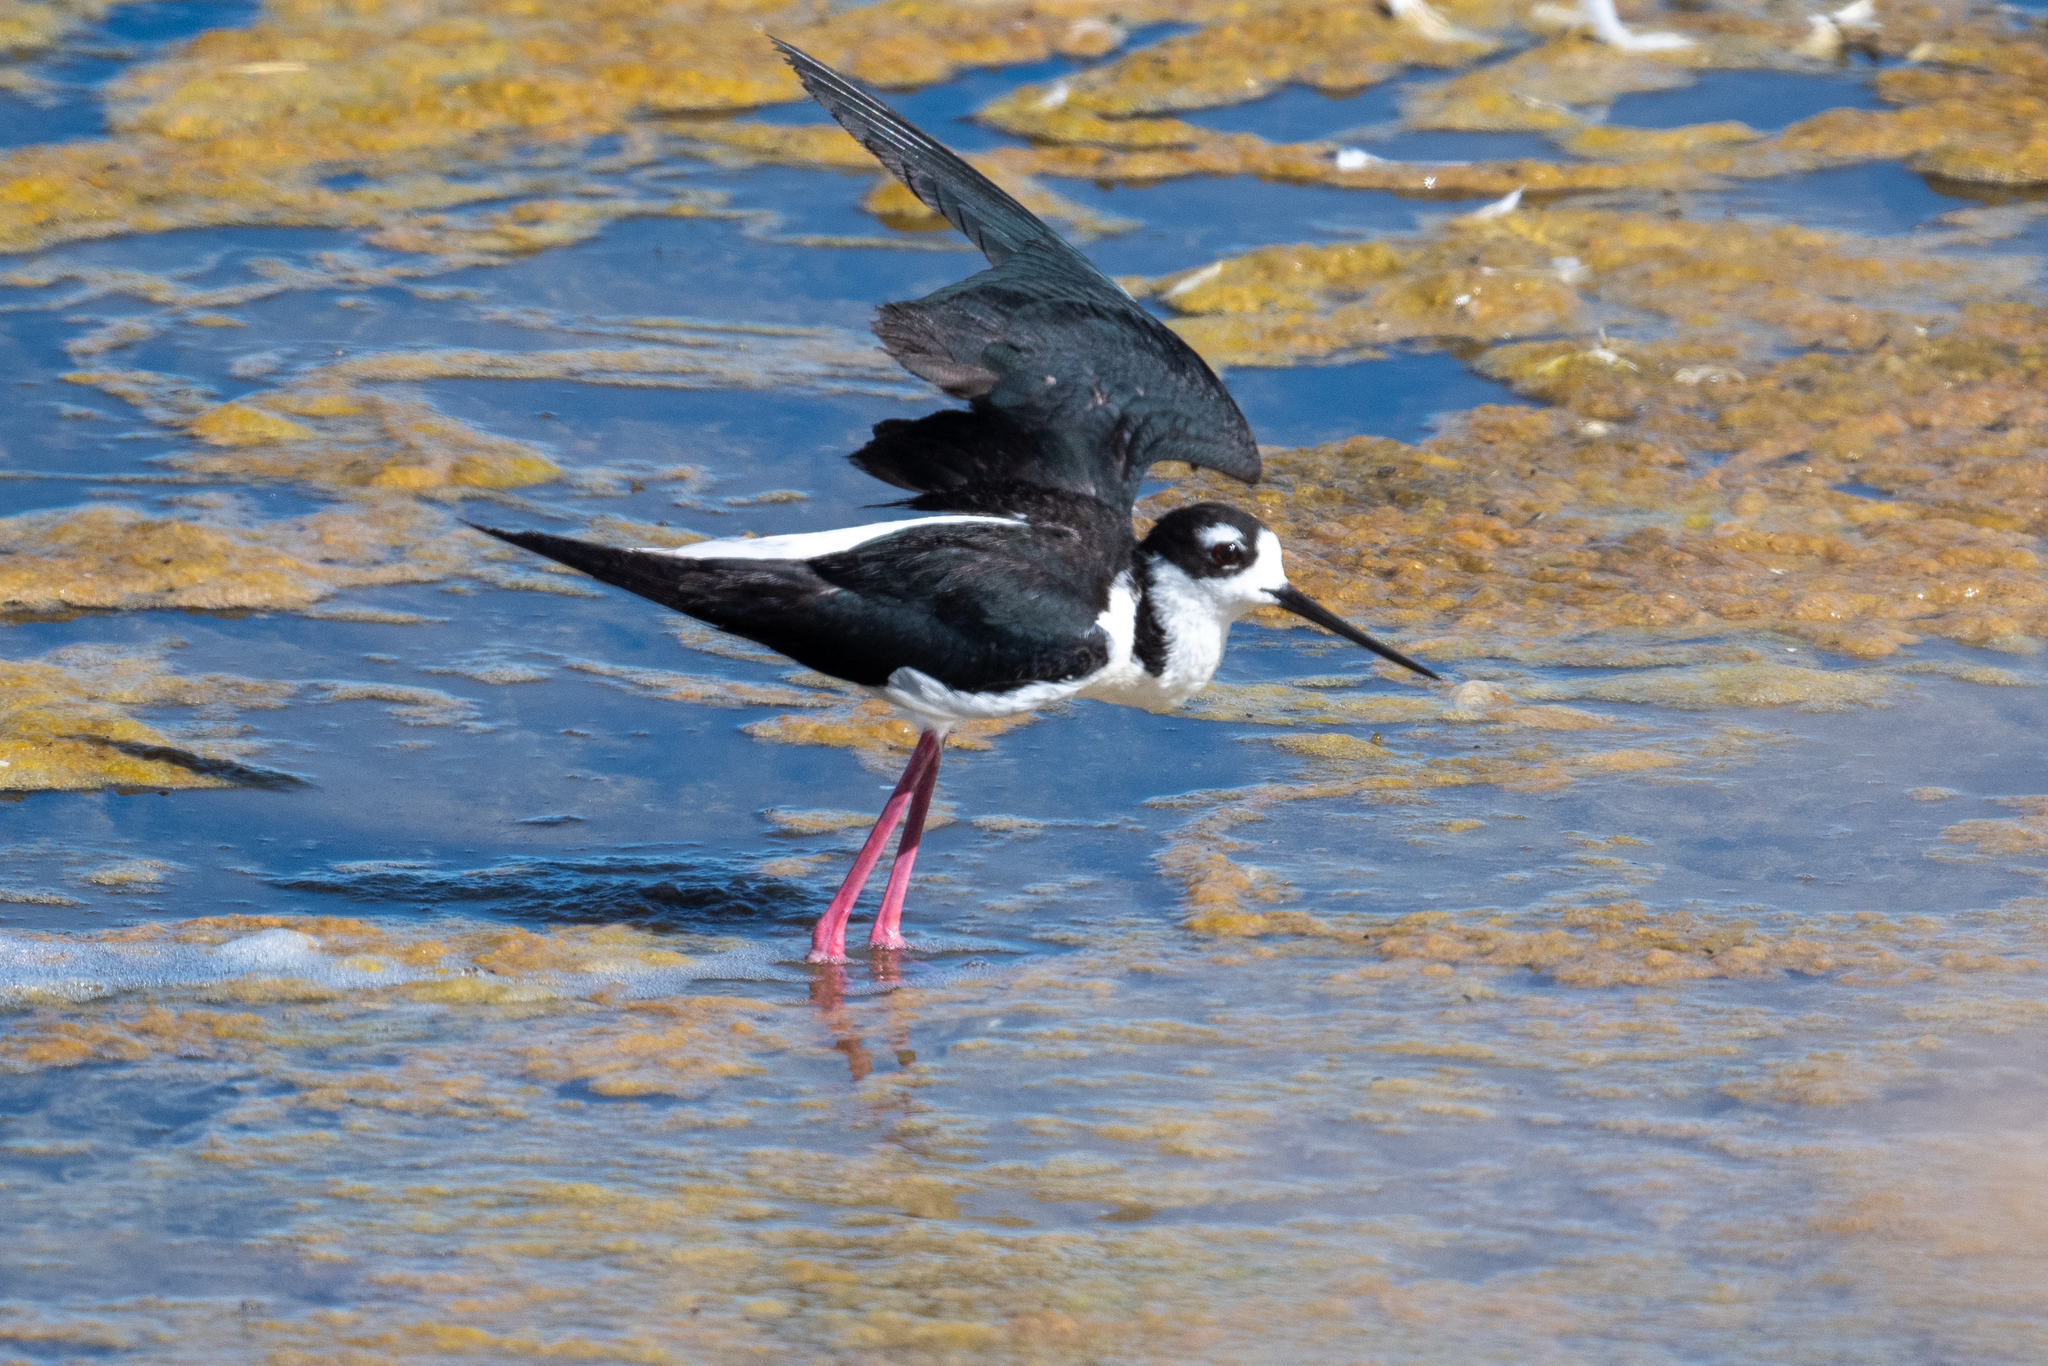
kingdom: Animalia
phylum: Chordata
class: Aves
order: Charadriiformes
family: Recurvirostridae
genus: Himantopus
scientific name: Himantopus mexicanus
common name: Black-necked stilt
